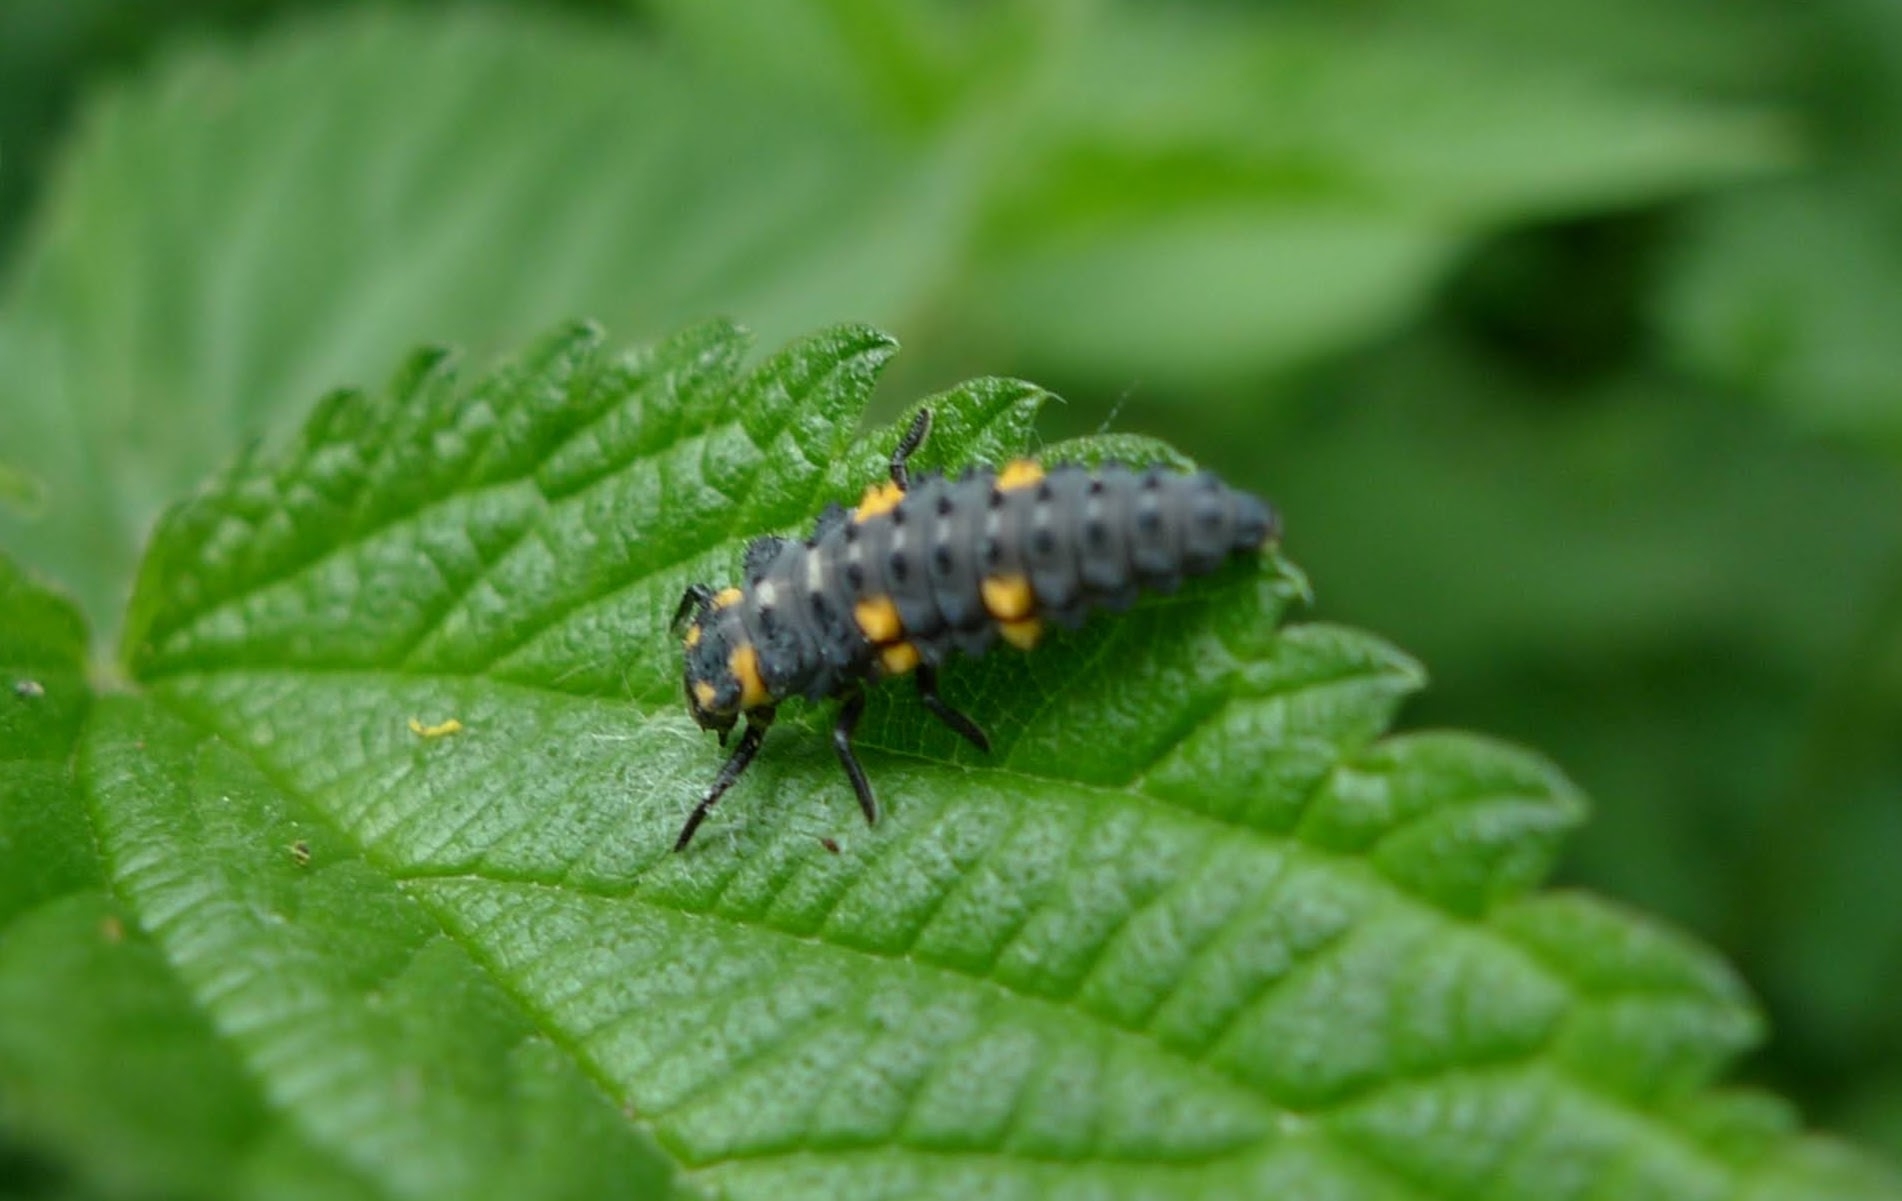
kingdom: Animalia
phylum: Arthropoda
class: Insecta
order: Coleoptera
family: Coccinellidae
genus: Coccinella
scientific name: Coccinella septempunctata
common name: Sevenspotted lady beetle
